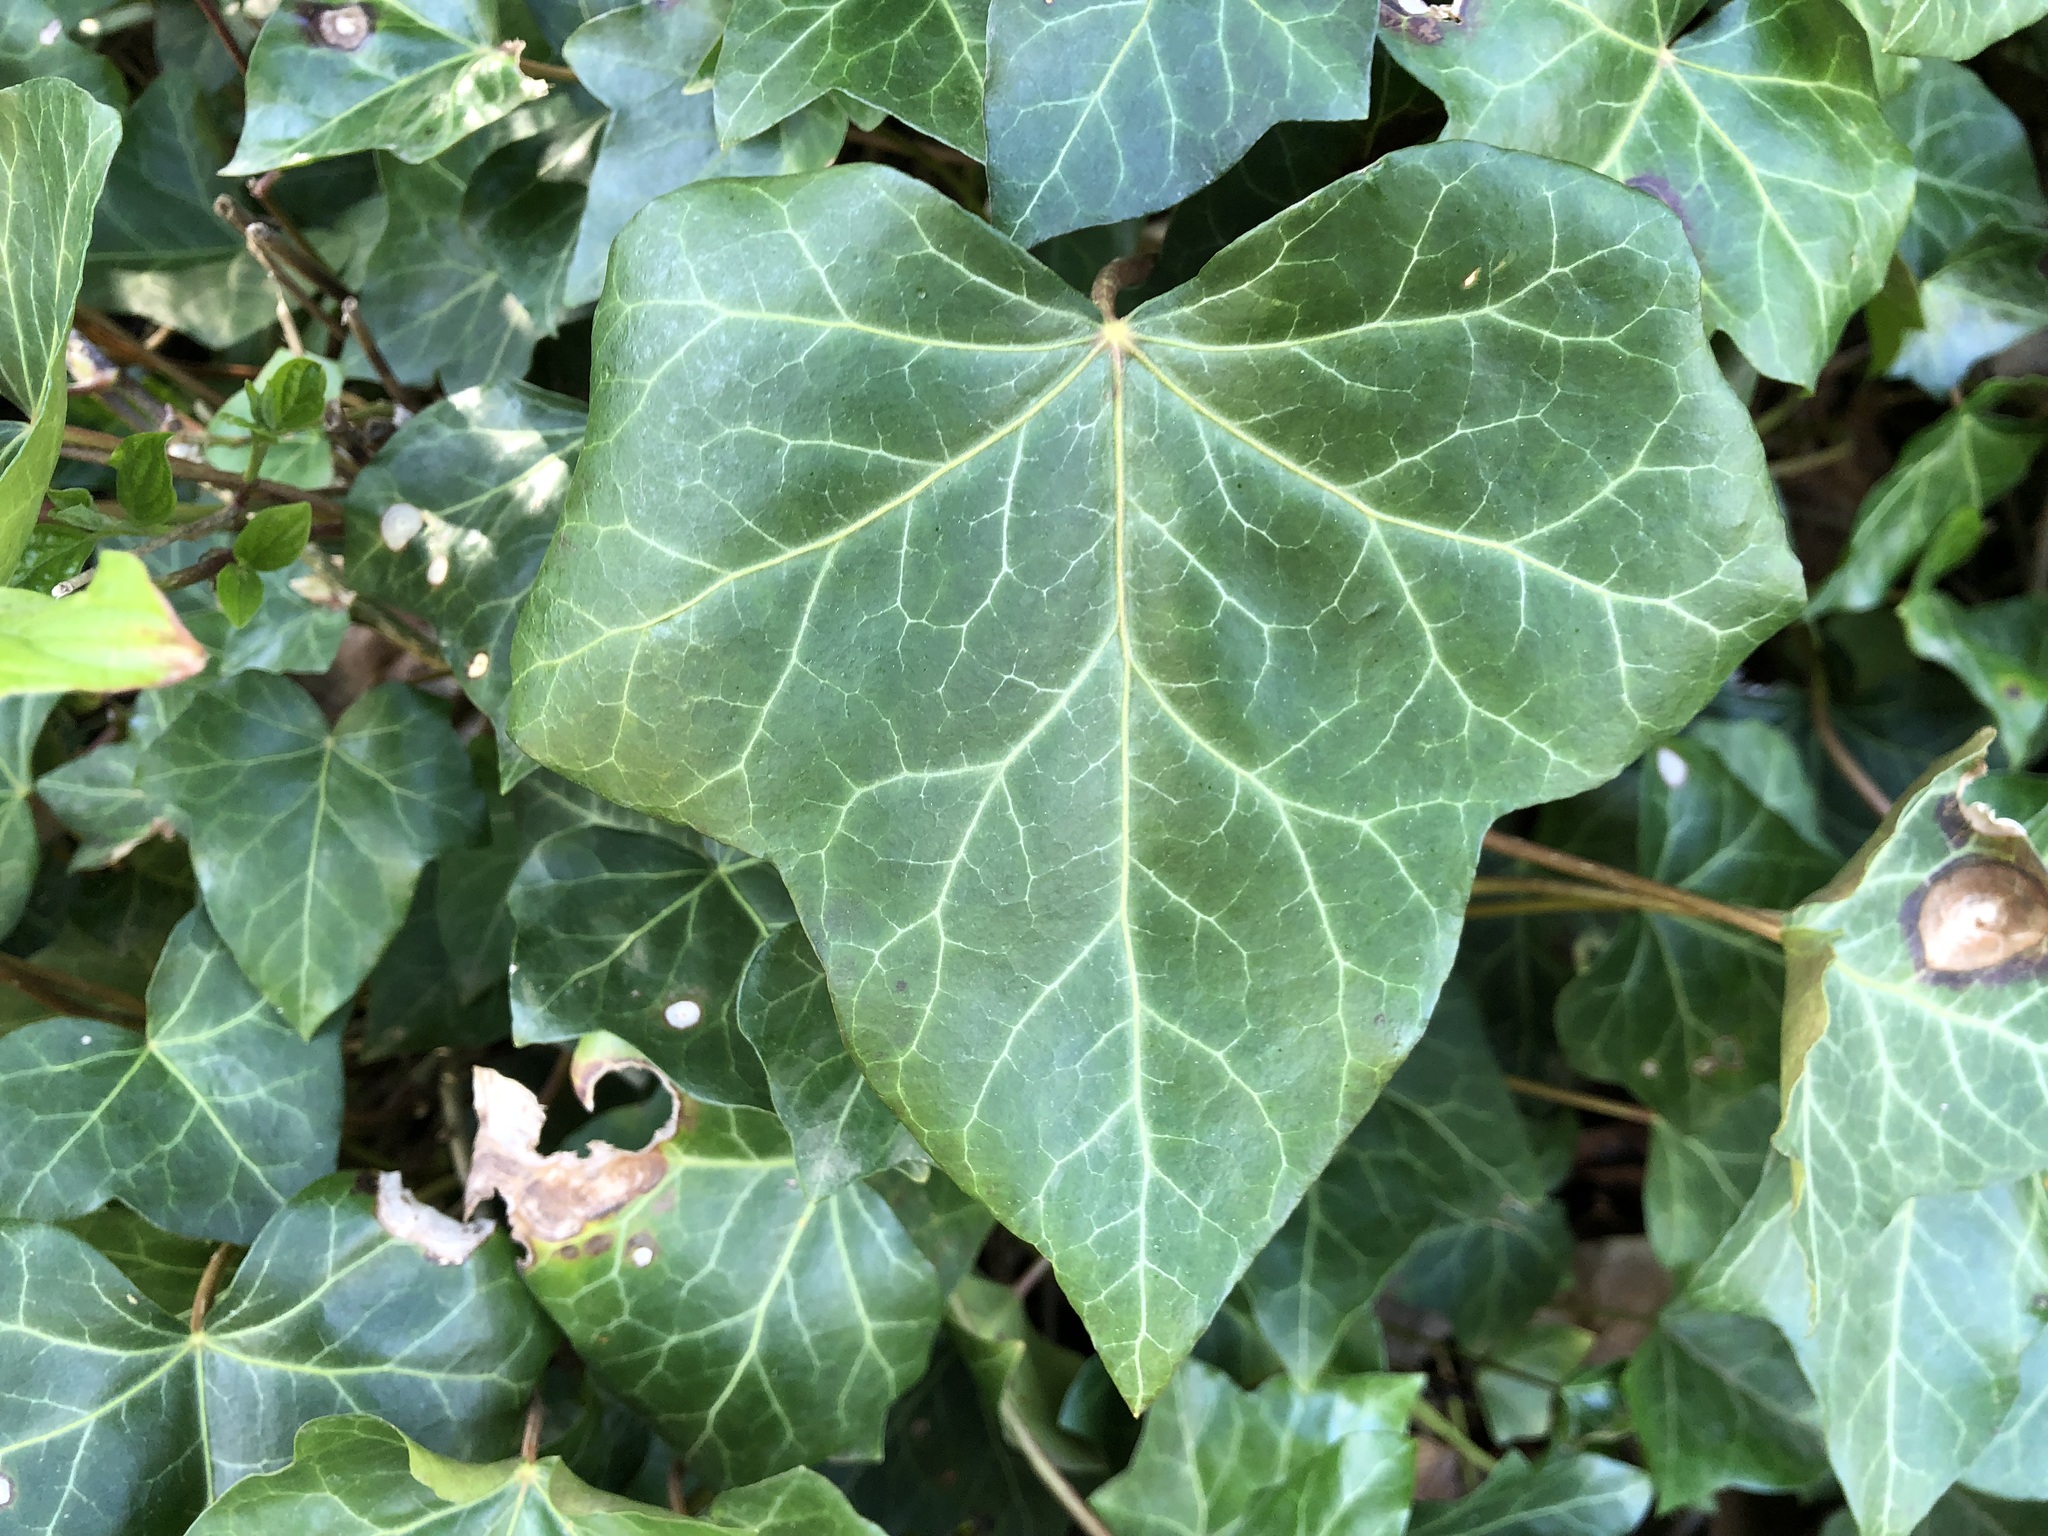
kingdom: Plantae
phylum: Tracheophyta
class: Magnoliopsida
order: Apiales
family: Araliaceae
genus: Hedera
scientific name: Hedera helix
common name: Ivy
